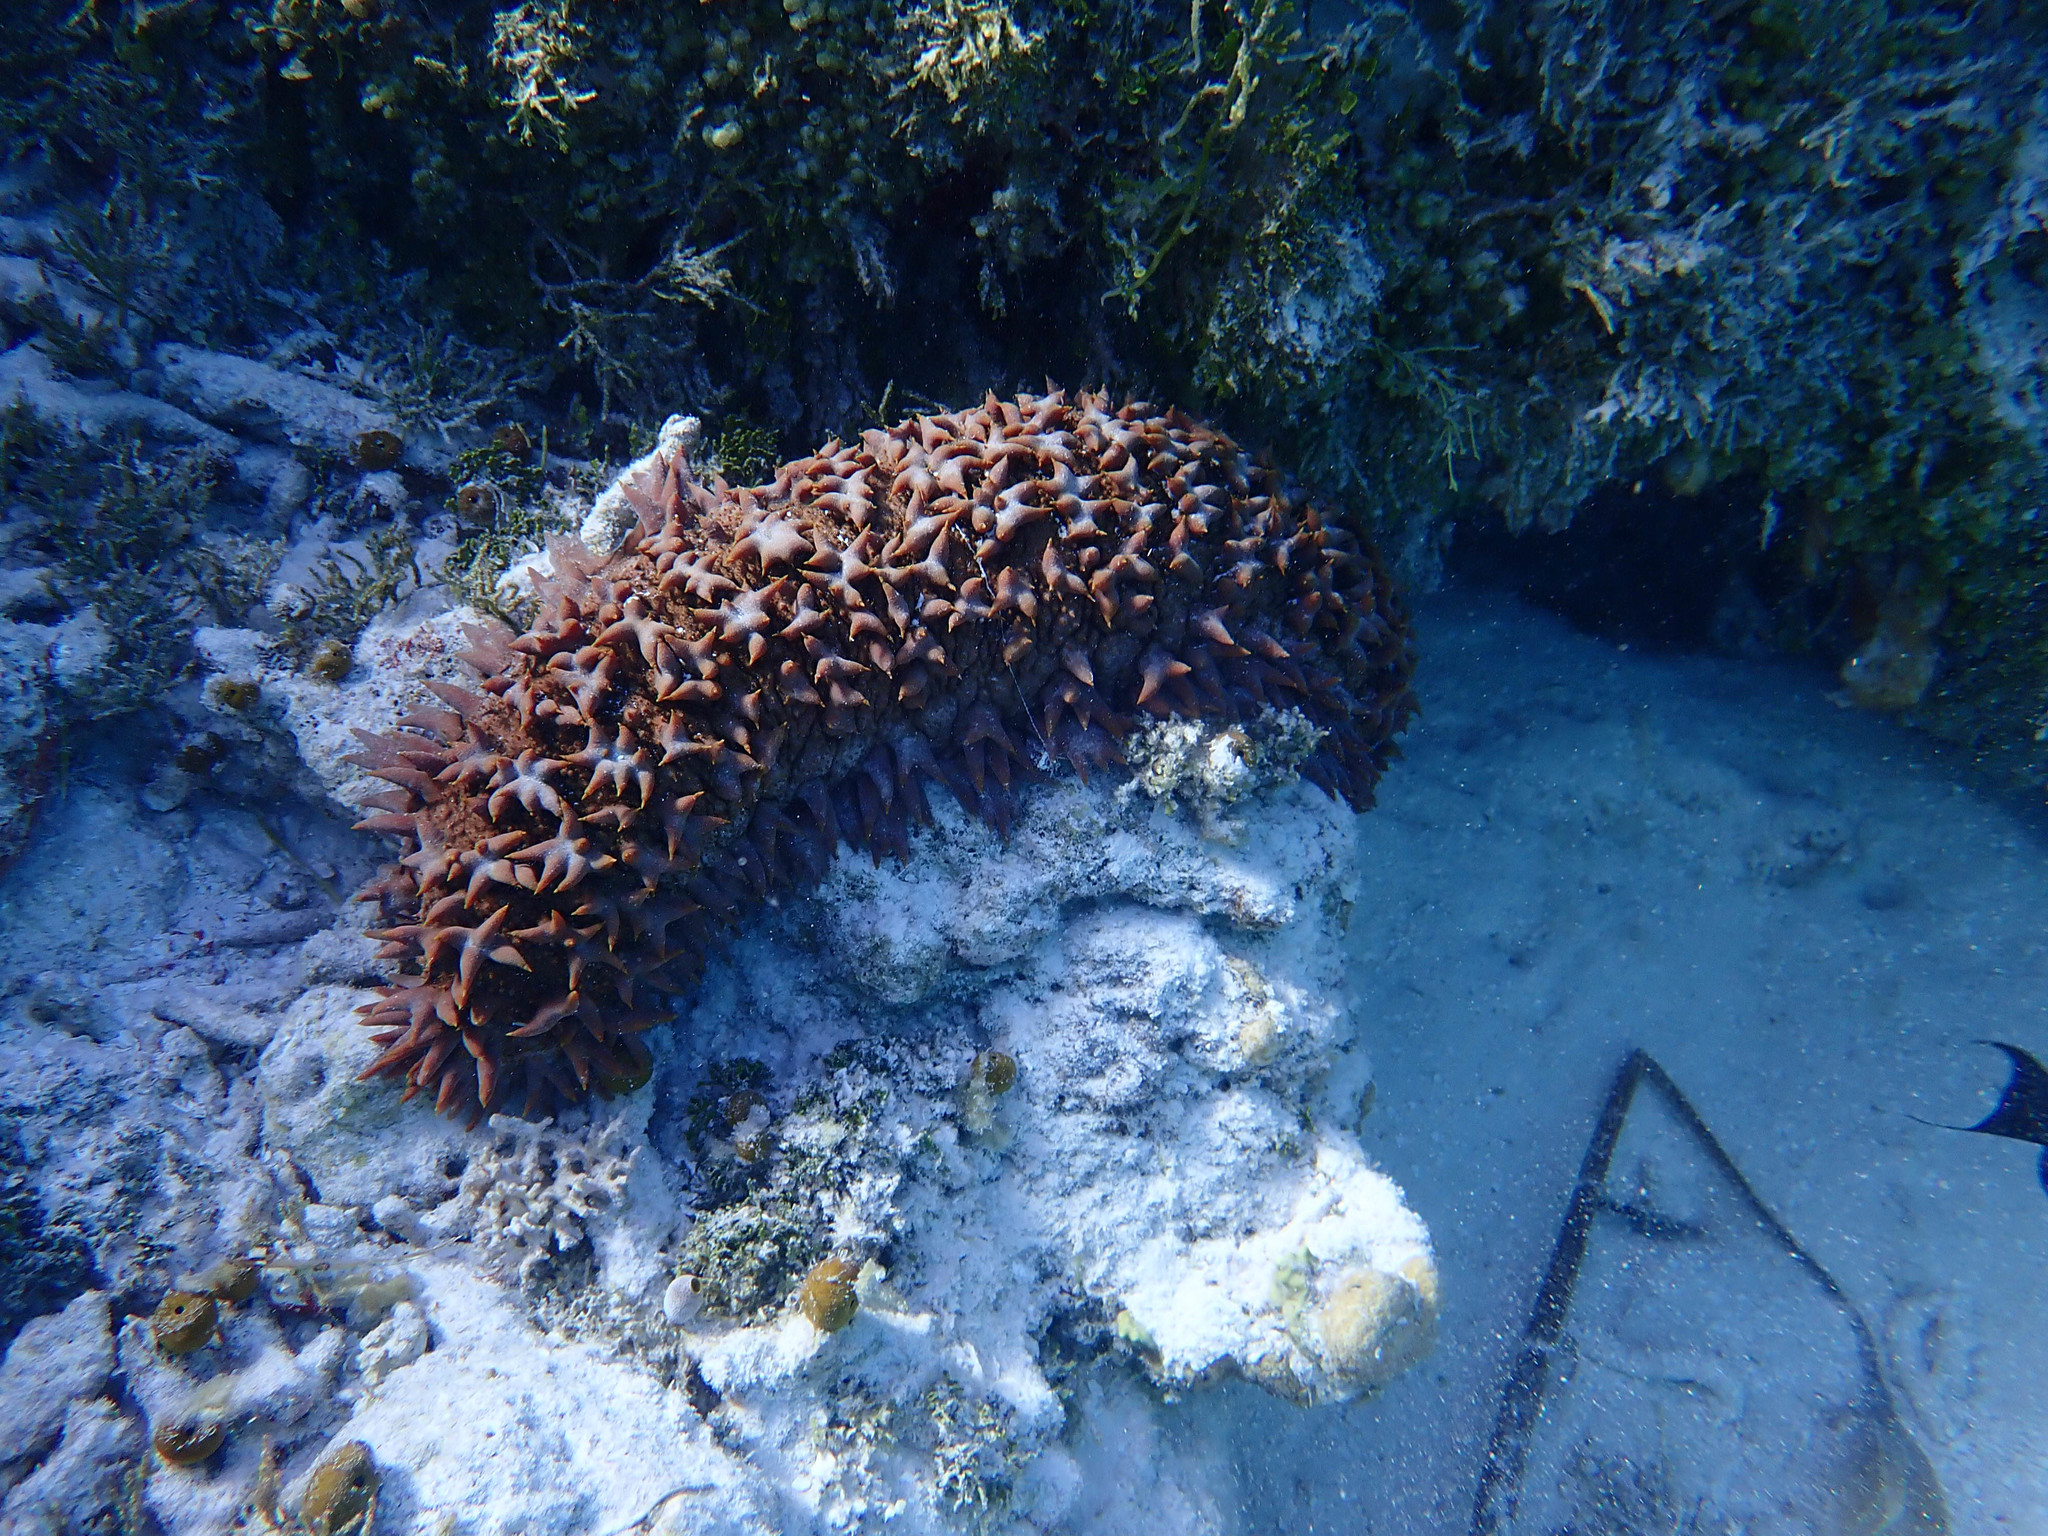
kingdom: Animalia
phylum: Echinodermata
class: Holothuroidea
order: Synallactida
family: Stichopodidae
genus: Thelenota
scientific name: Thelenota ananas
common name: Prickly redfish
